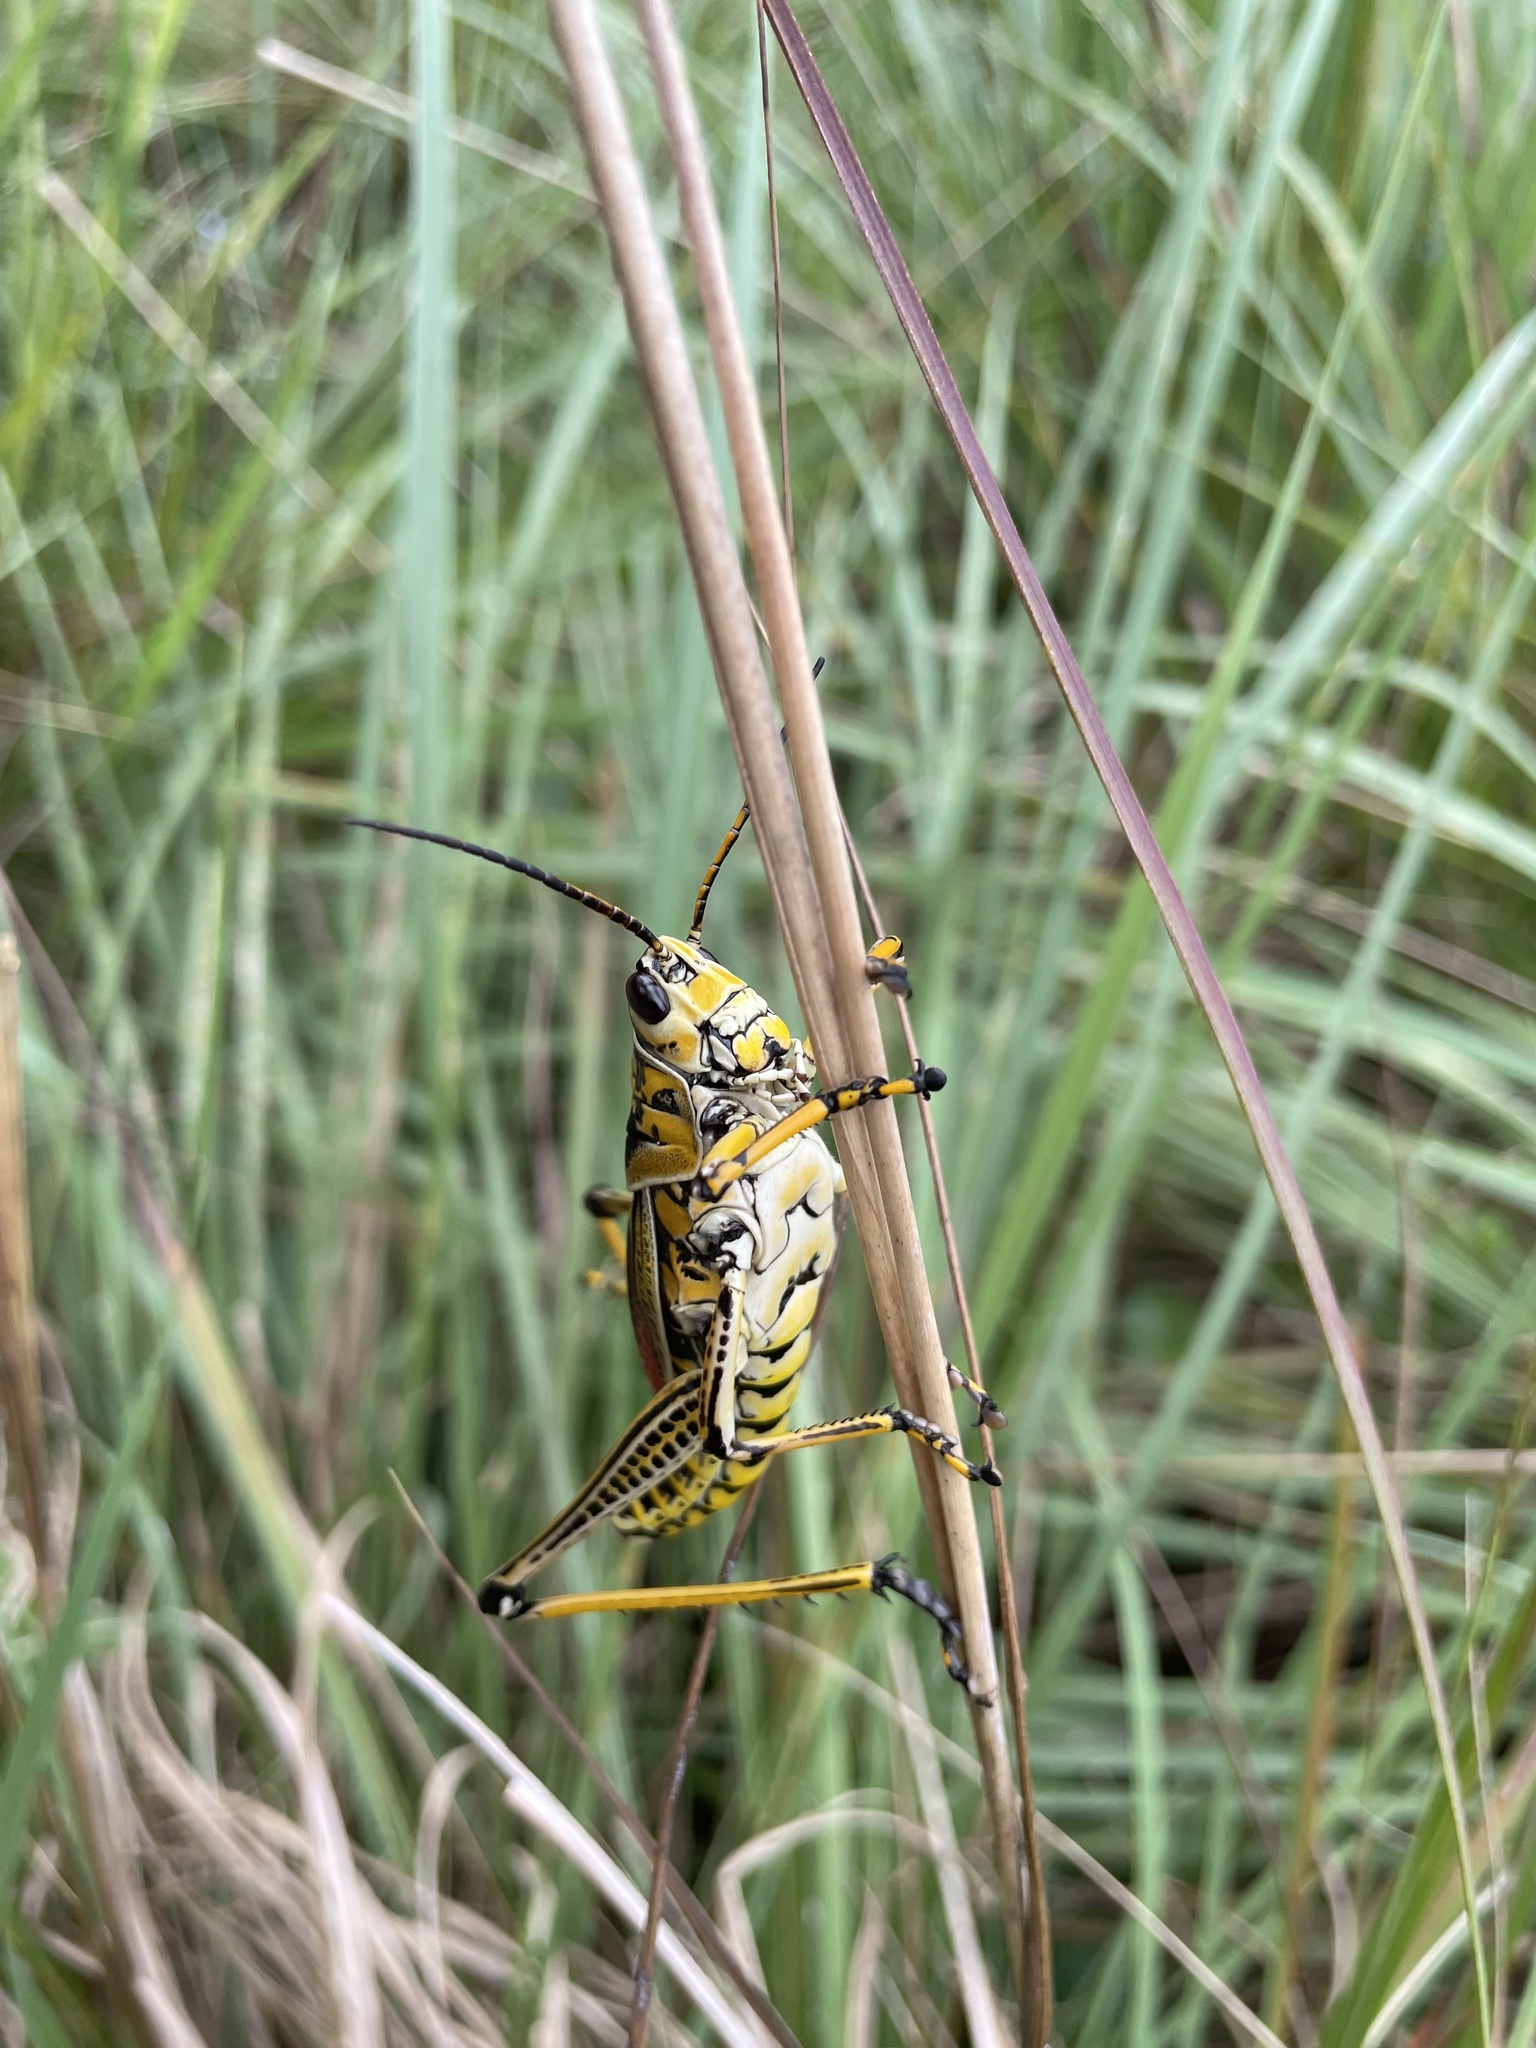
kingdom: Animalia
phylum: Arthropoda
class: Insecta
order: Orthoptera
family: Romaleidae
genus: Romalea
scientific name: Romalea microptera
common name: Eastern lubber grasshopper
